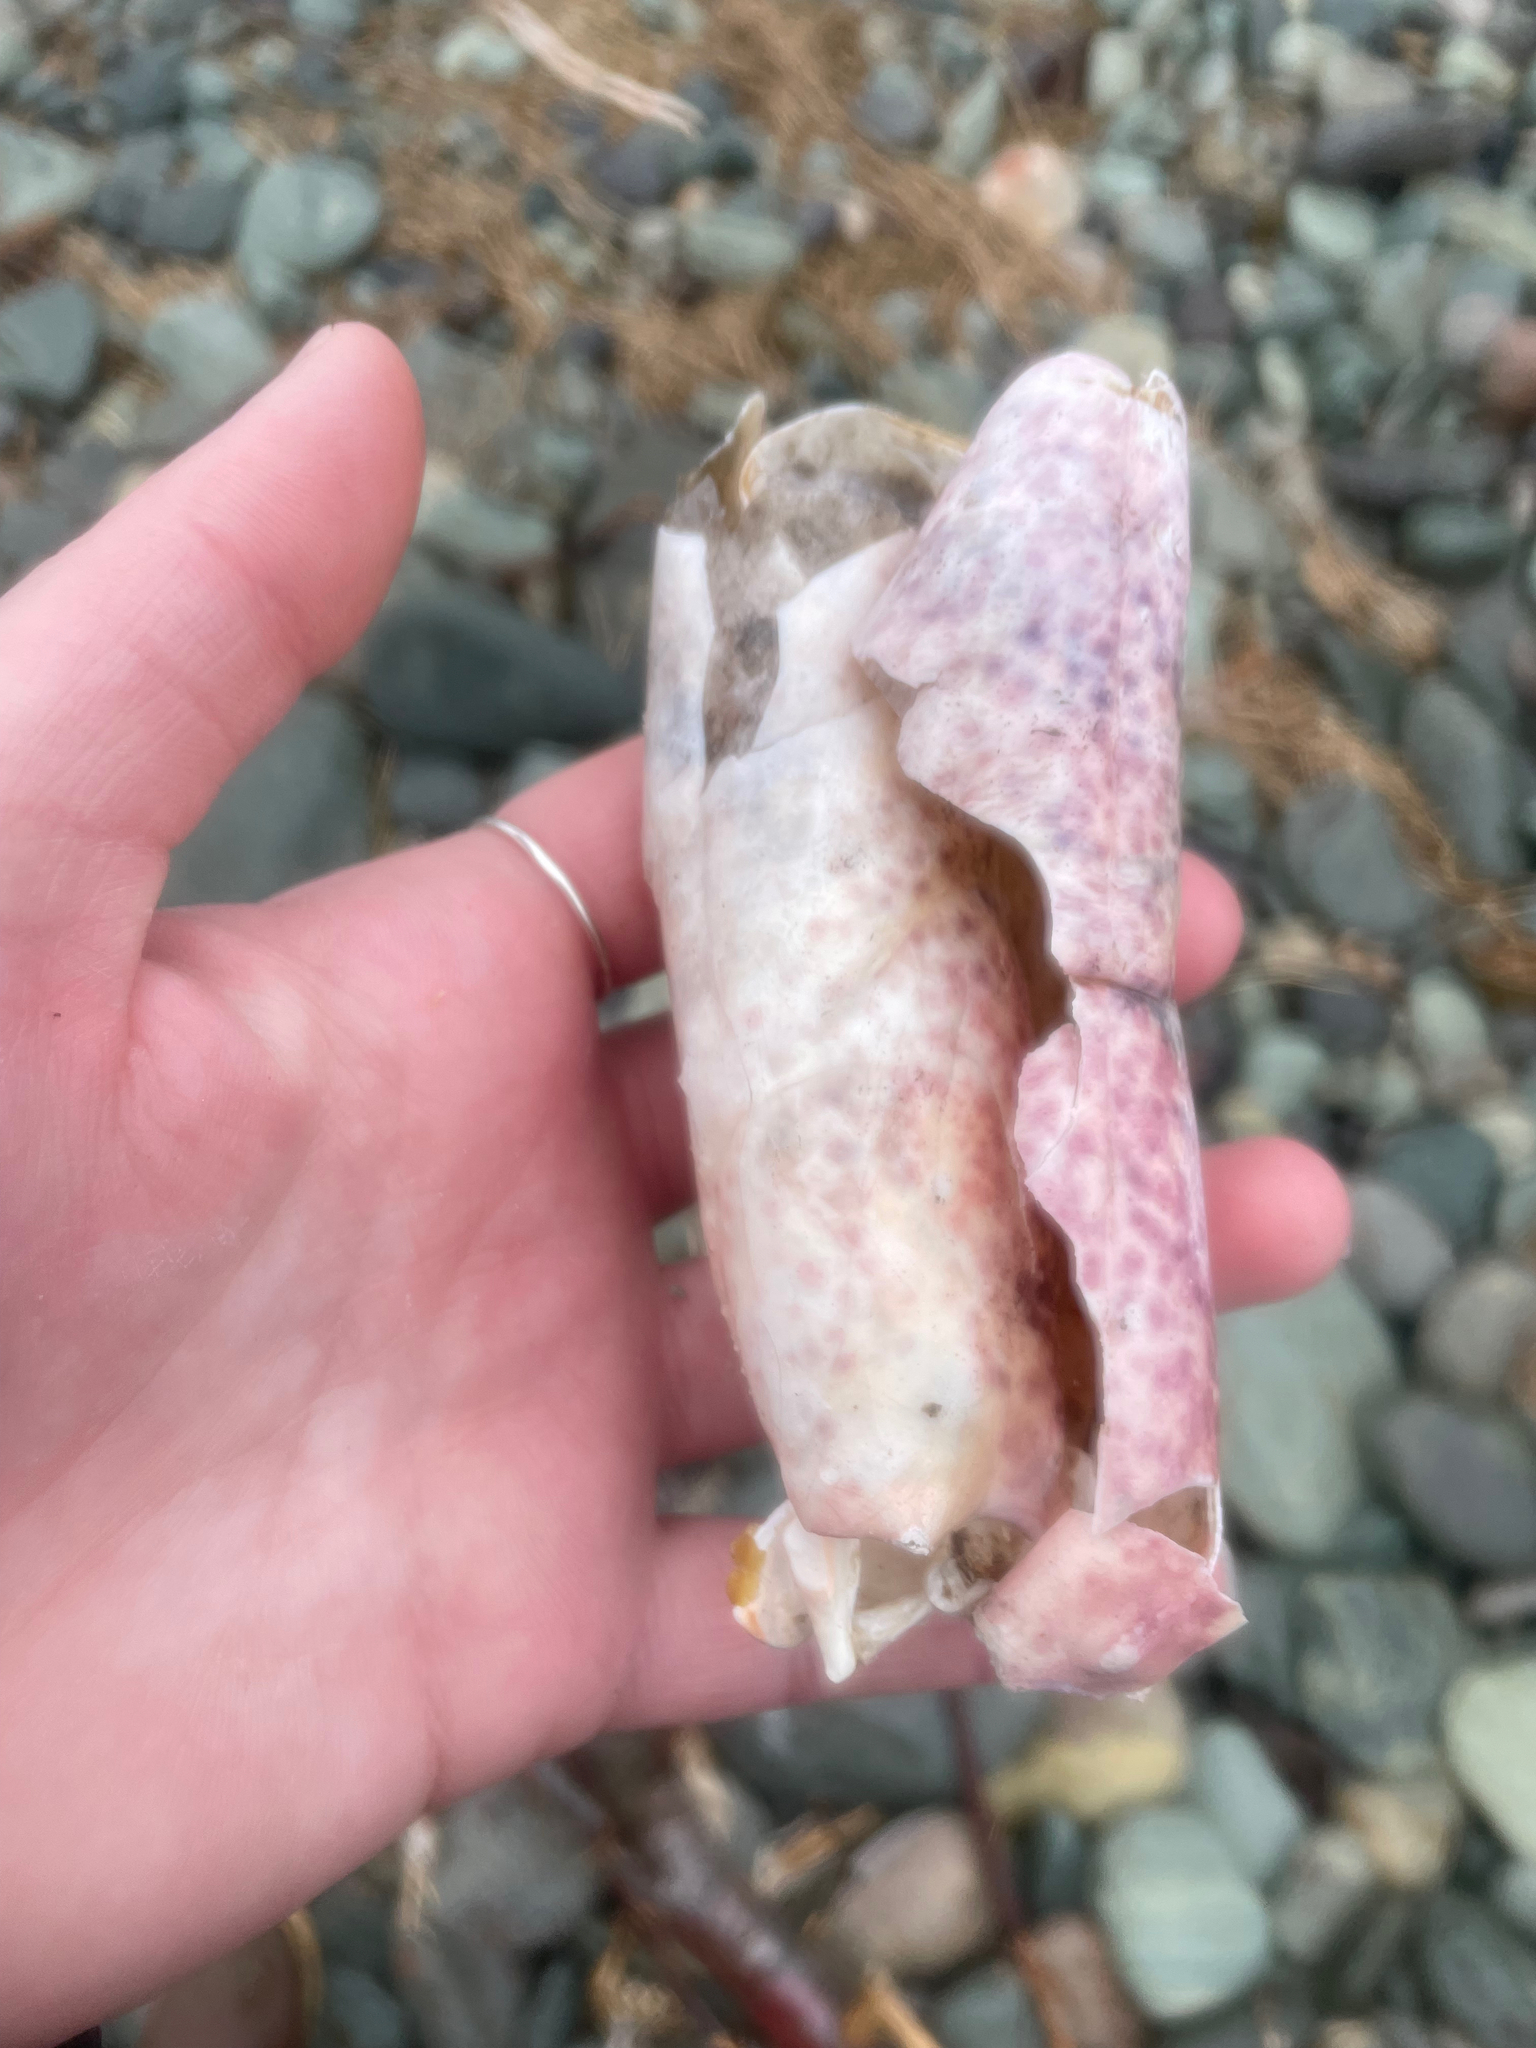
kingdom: Animalia
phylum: Arthropoda
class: Malacostraca
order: Decapoda
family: Nephropidae
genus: Homarus
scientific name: Homarus americanus
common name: American lobster
